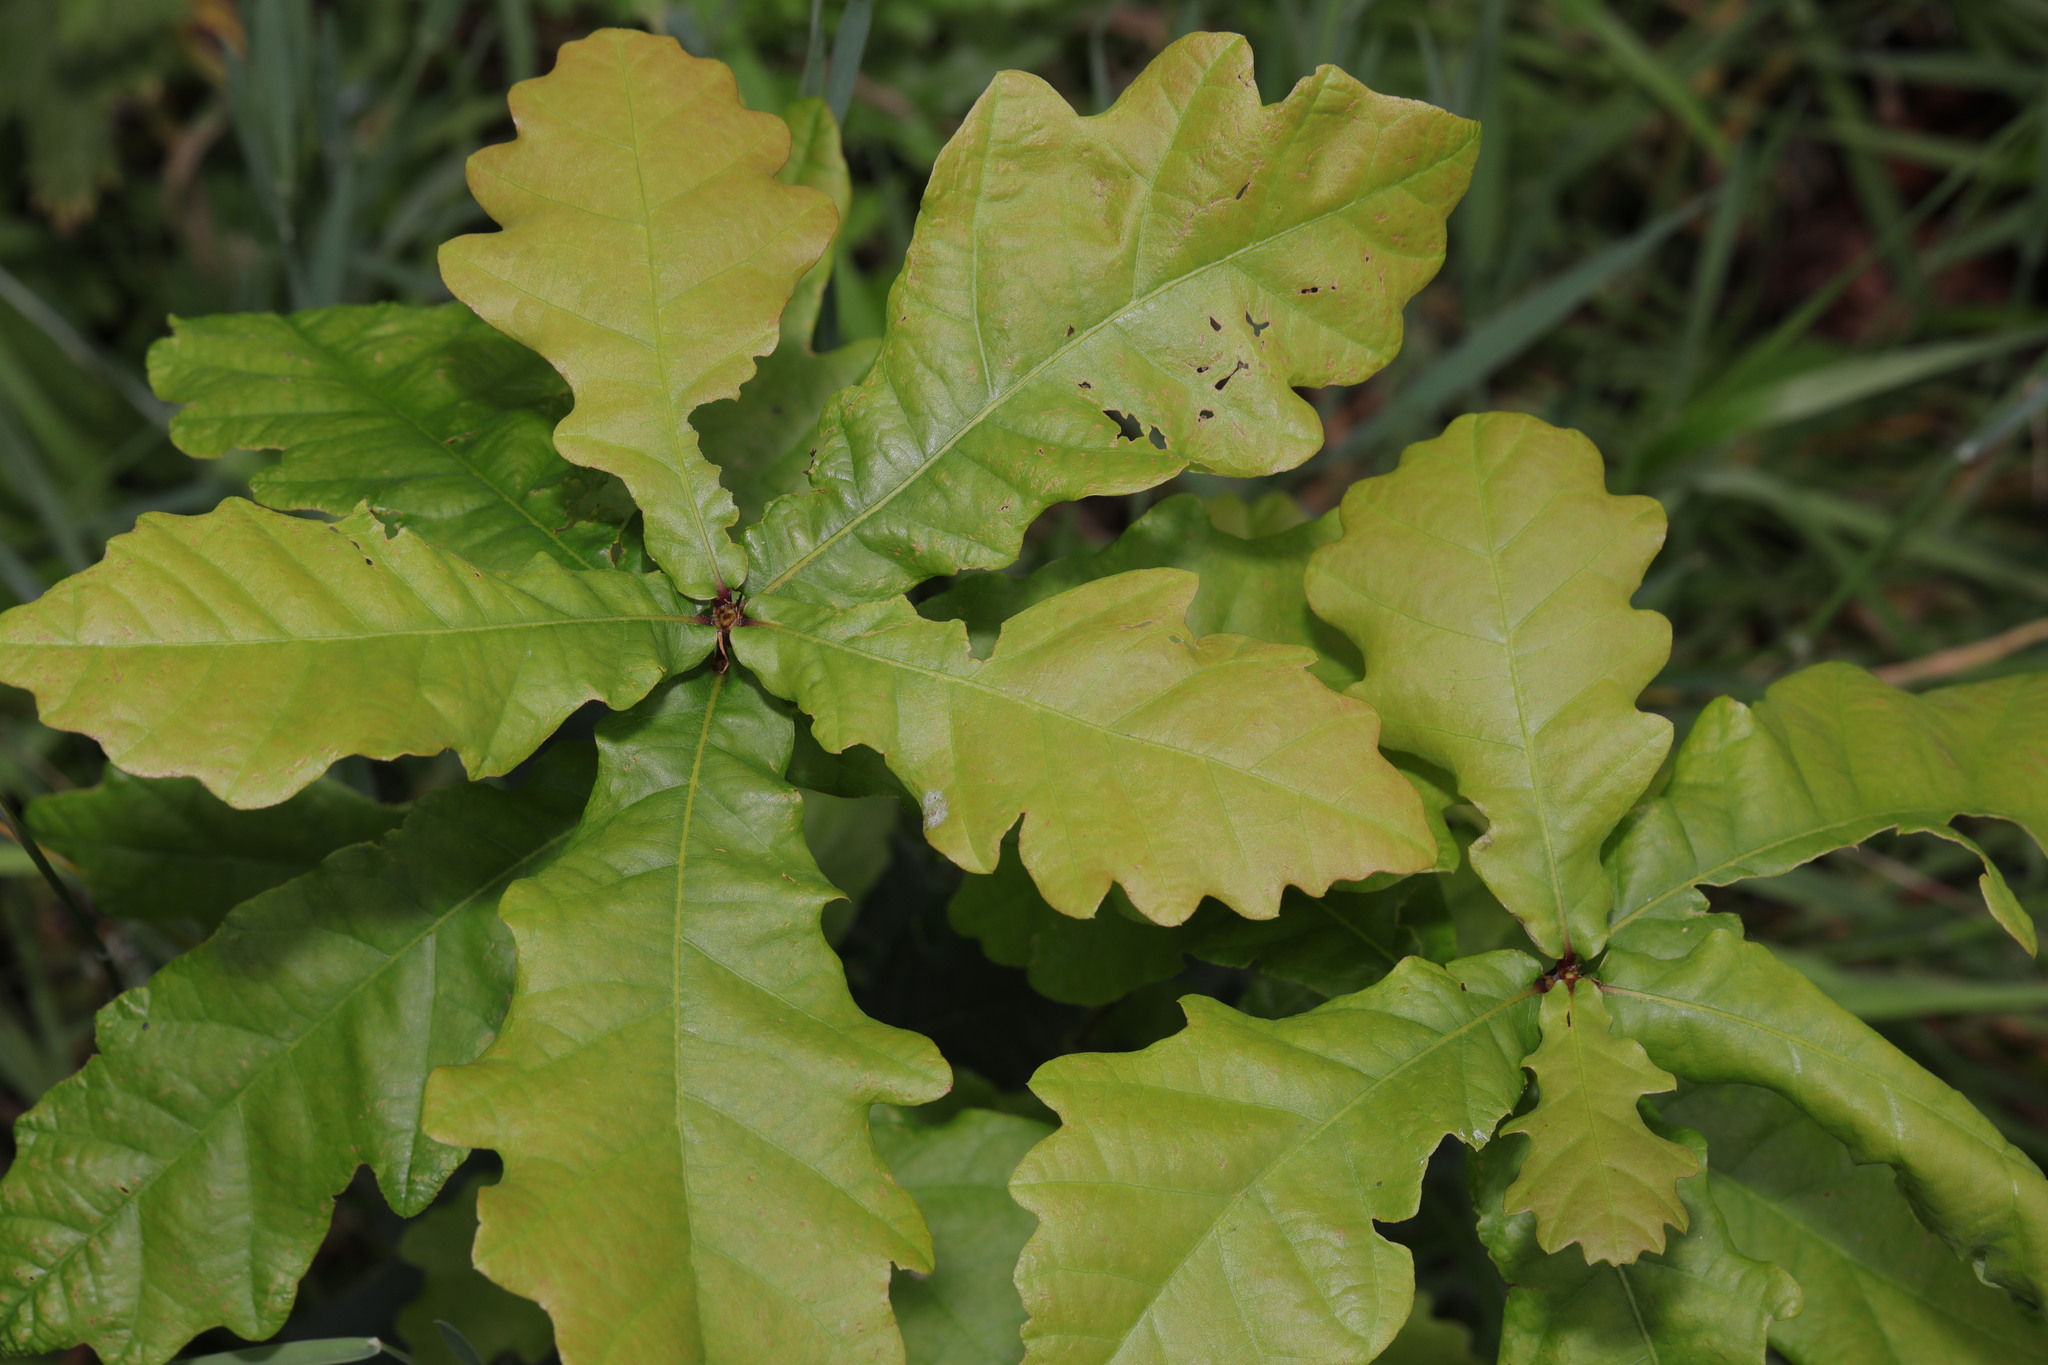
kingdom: Plantae
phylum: Tracheophyta
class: Magnoliopsida
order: Fagales
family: Fagaceae
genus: Quercus
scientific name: Quercus robur
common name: Pedunculate oak
